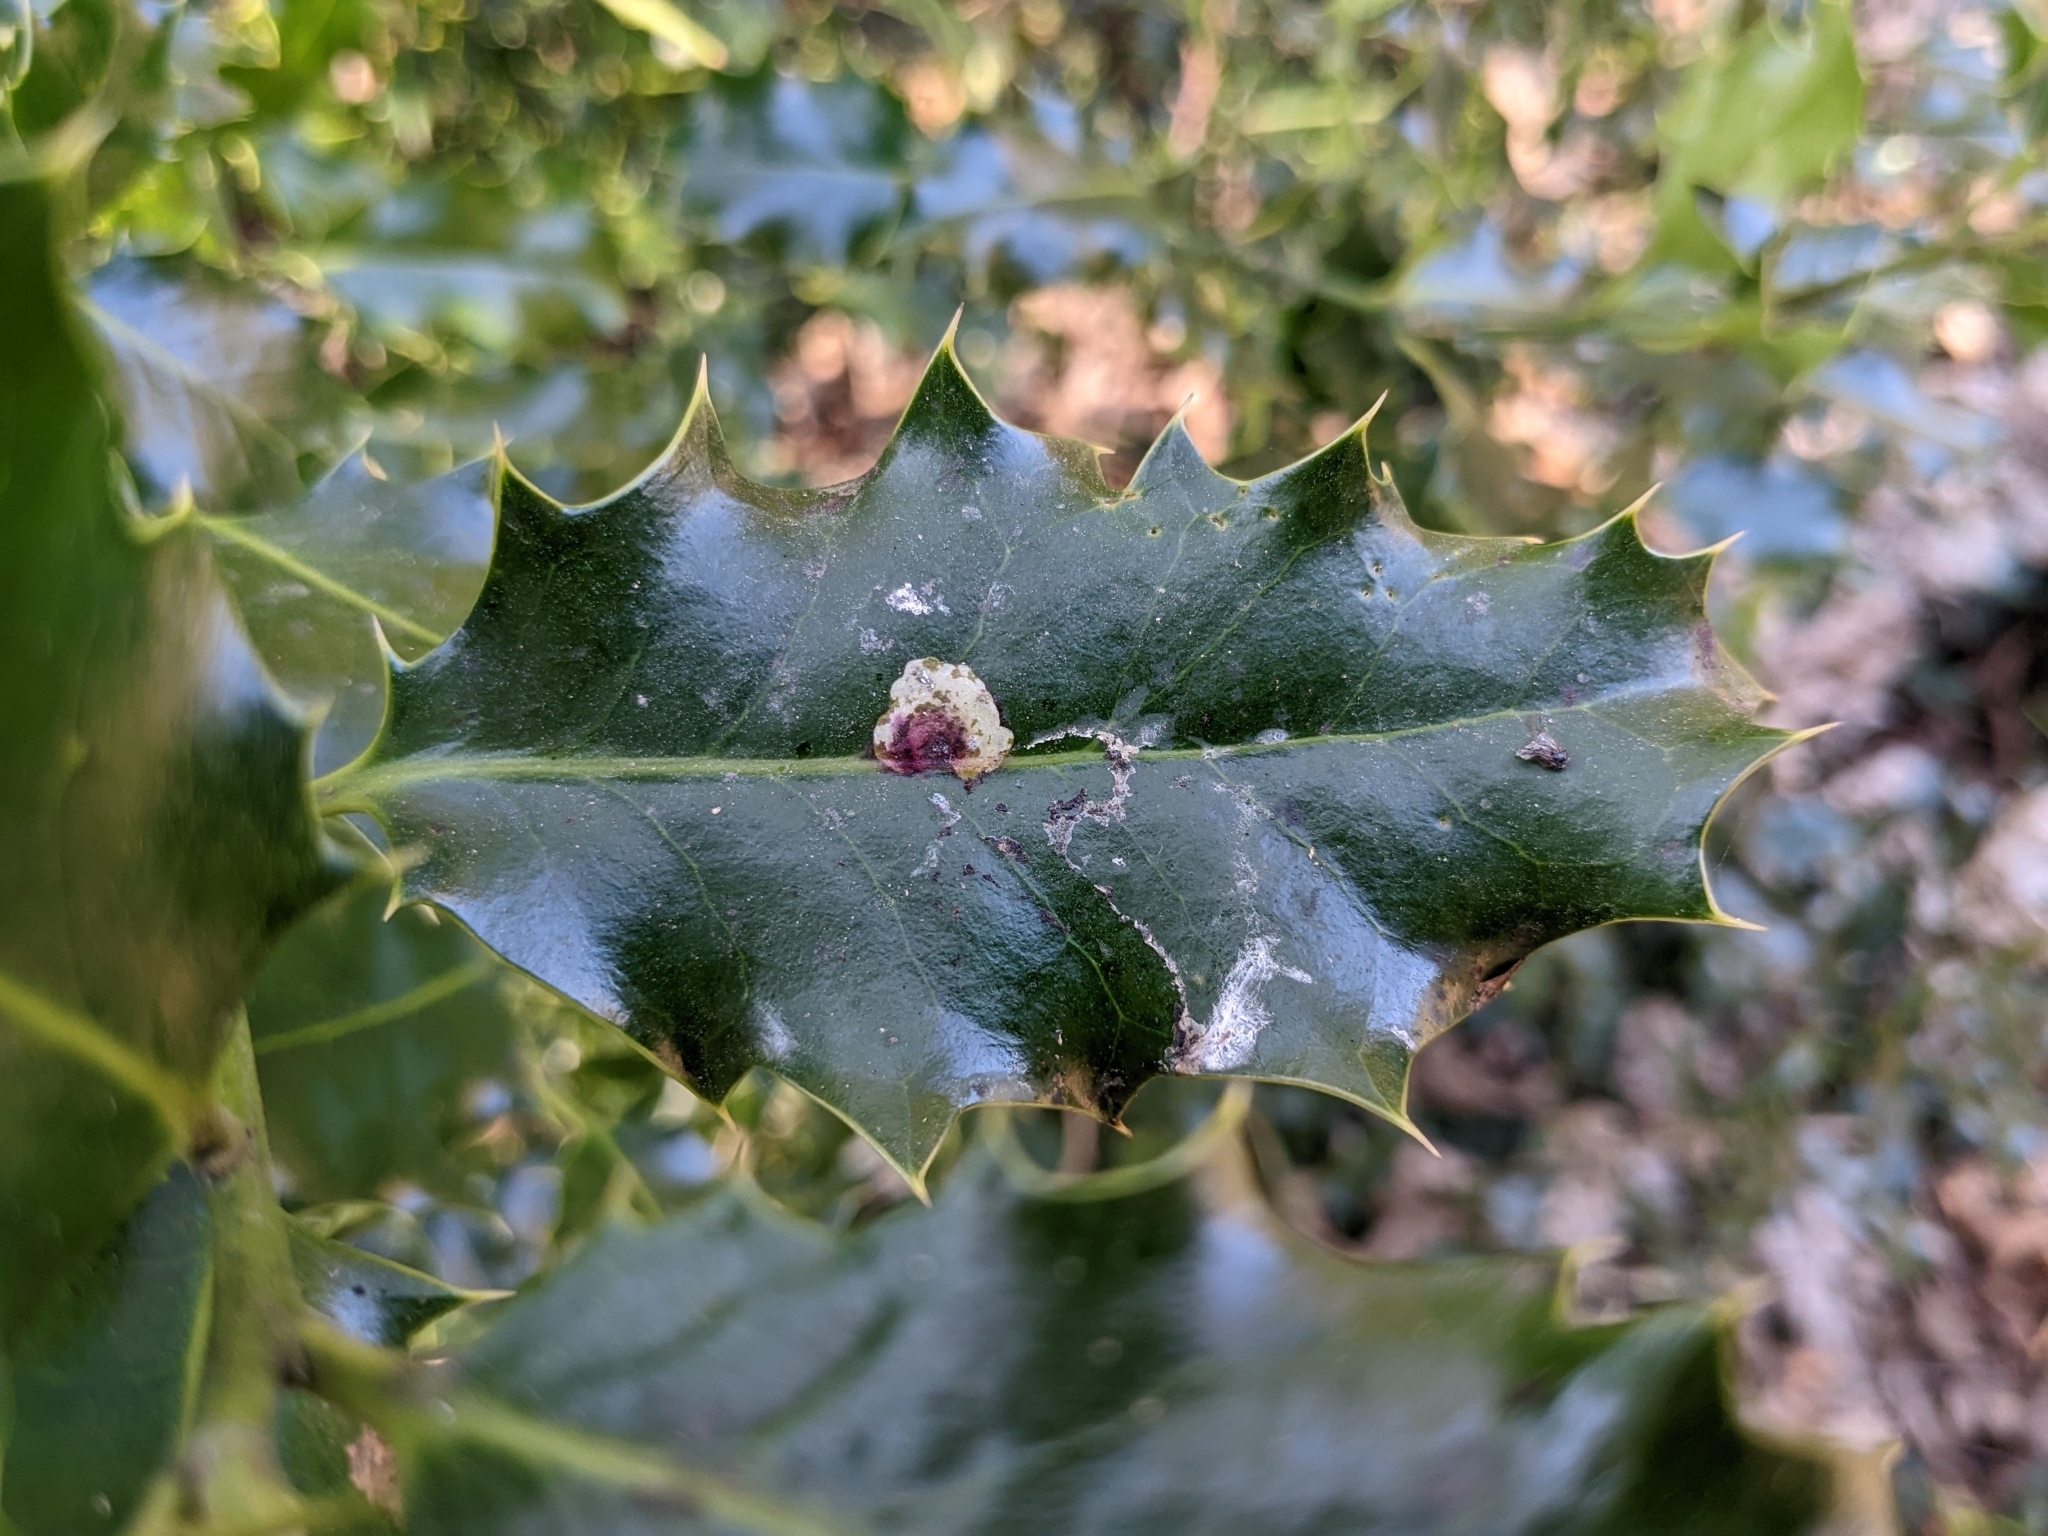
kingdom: Animalia
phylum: Arthropoda
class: Insecta
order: Diptera
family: Agromyzidae
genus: Phytomyza
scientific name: Phytomyza ilicis
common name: Holly leafminer
